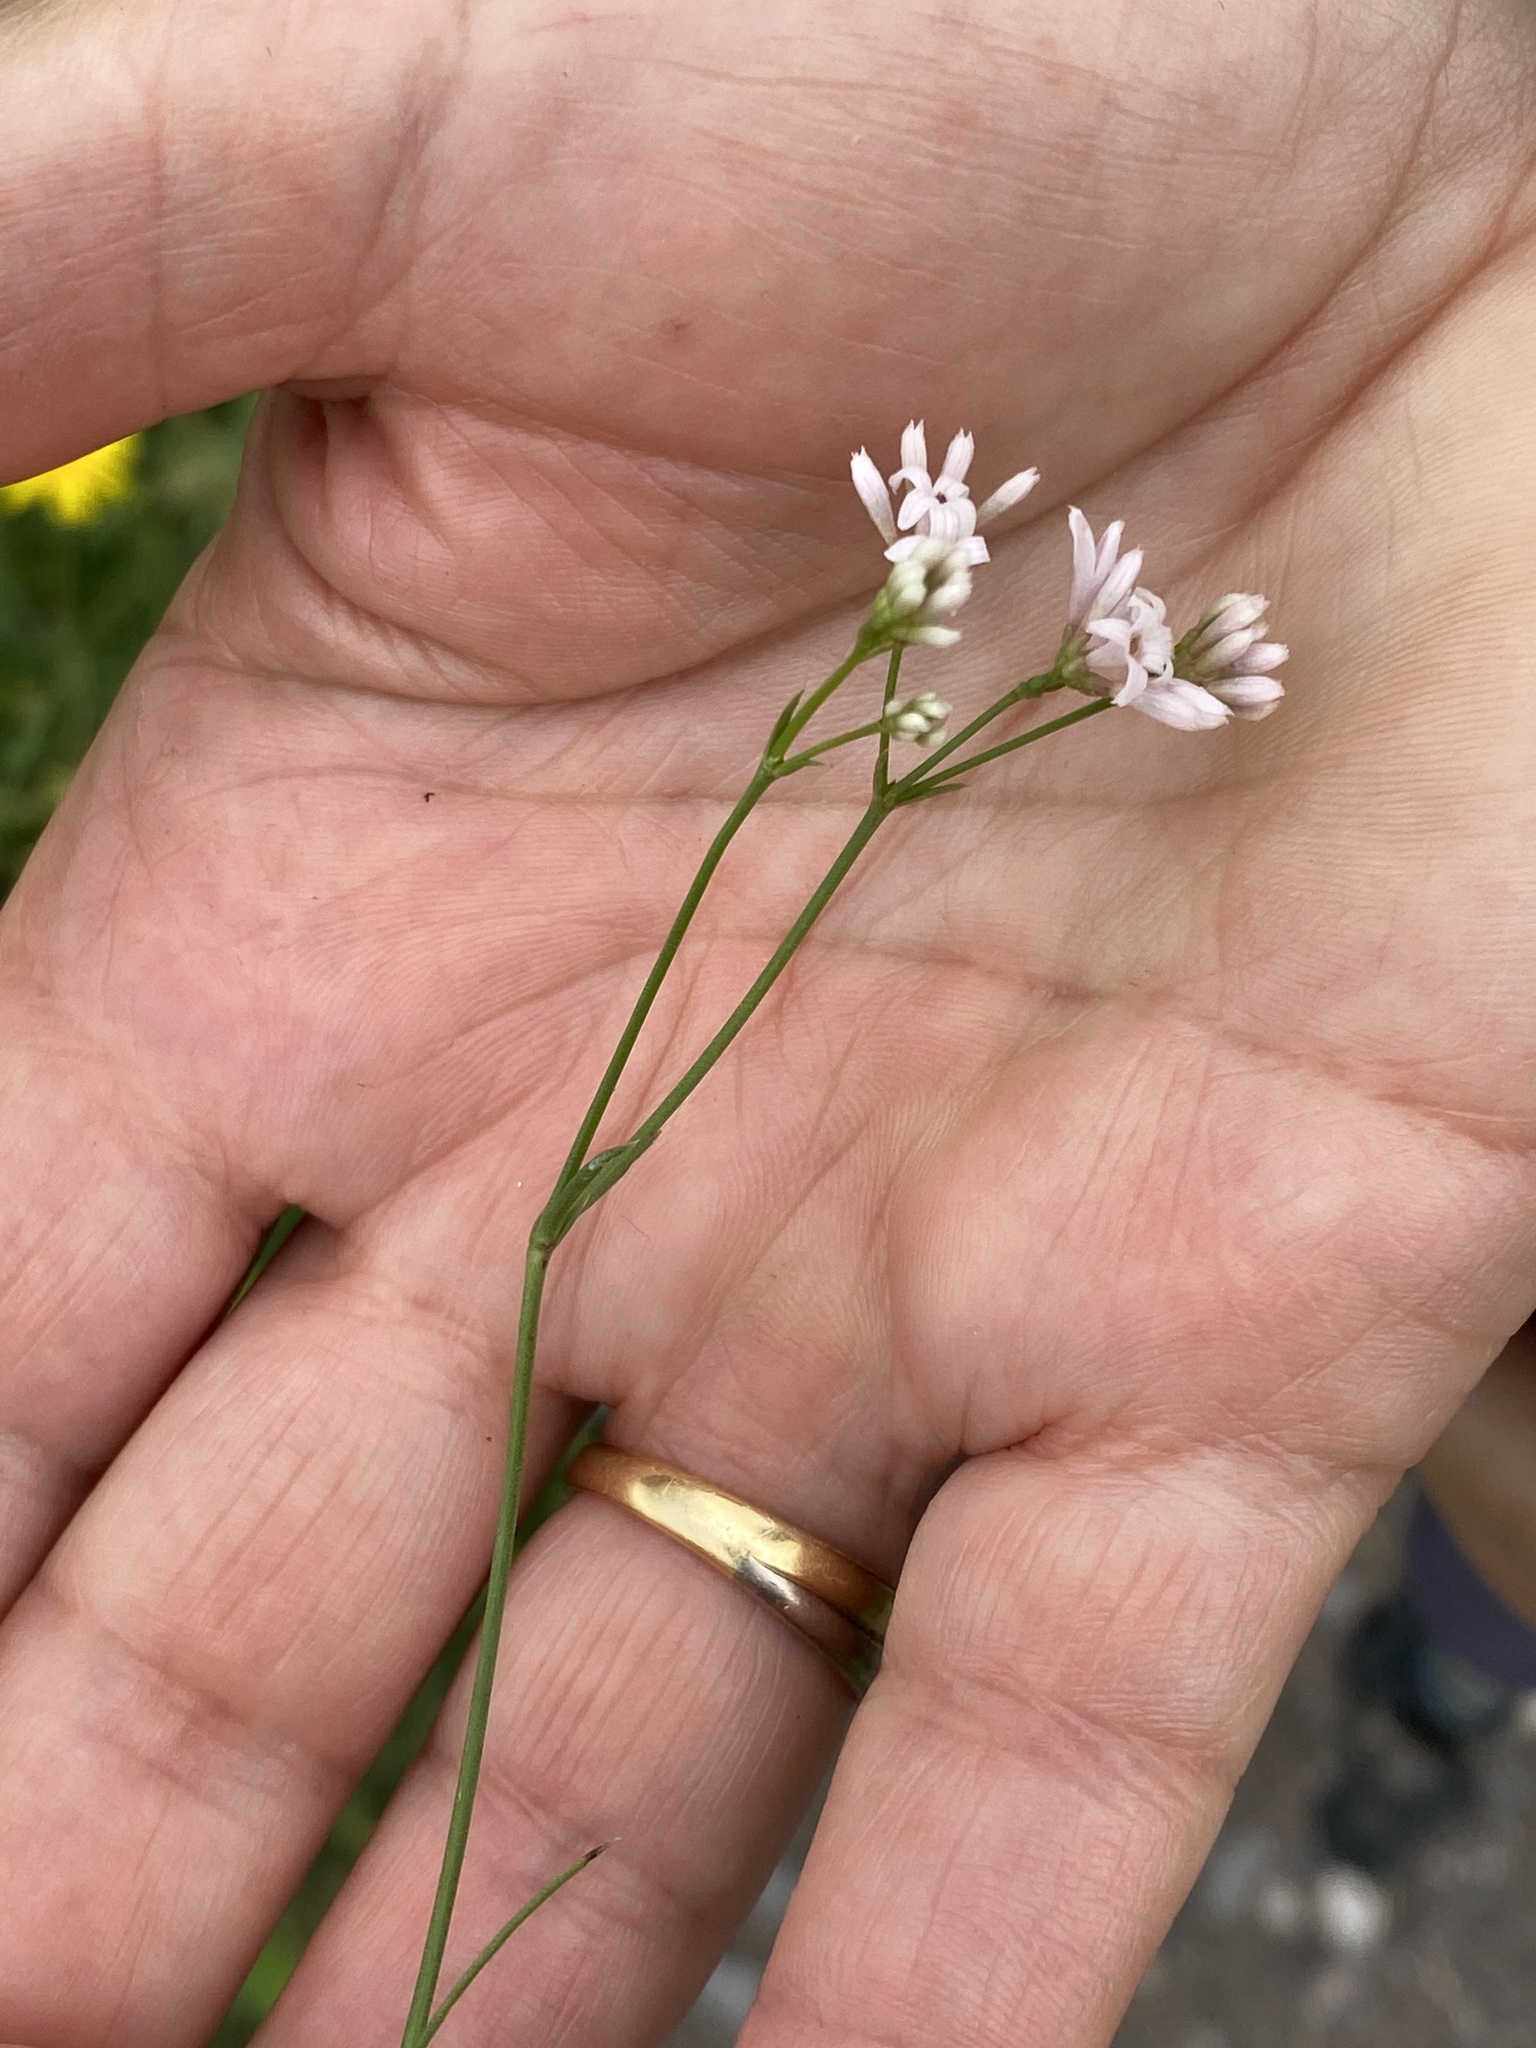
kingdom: Plantae
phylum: Tracheophyta
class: Magnoliopsida
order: Gentianales
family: Rubiaceae
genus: Cynanchica
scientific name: Cynanchica pyrenaica
